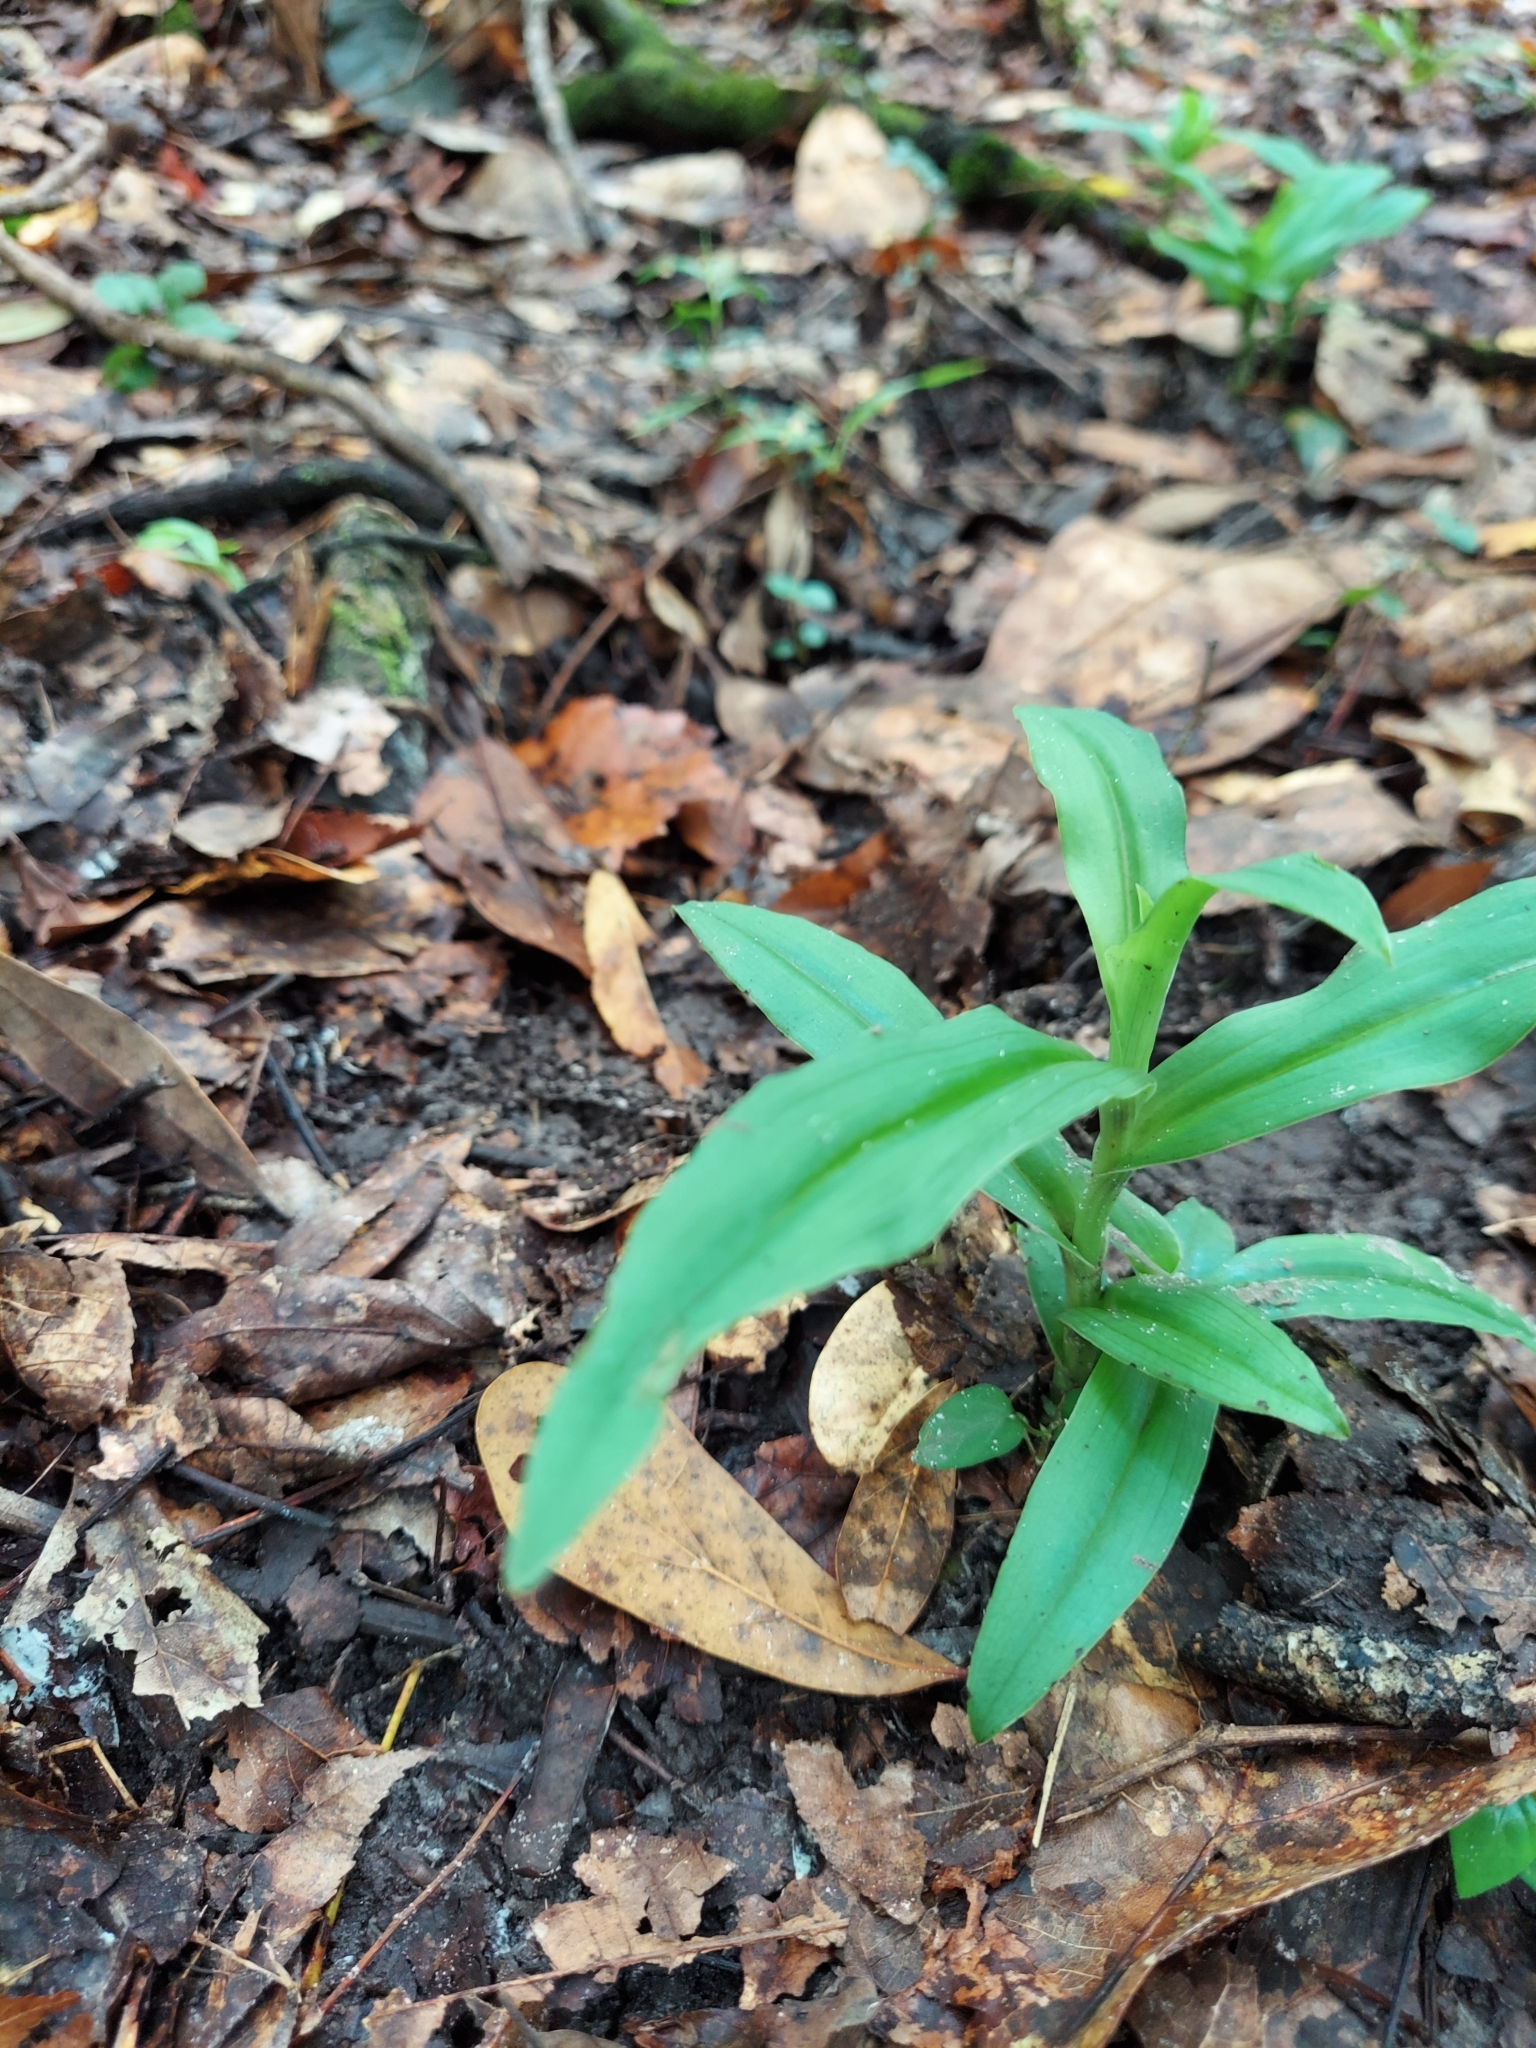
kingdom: Plantae
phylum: Tracheophyta
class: Liliopsida
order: Asparagales
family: Orchidaceae
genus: Habenaria
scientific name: Habenaria floribunda
